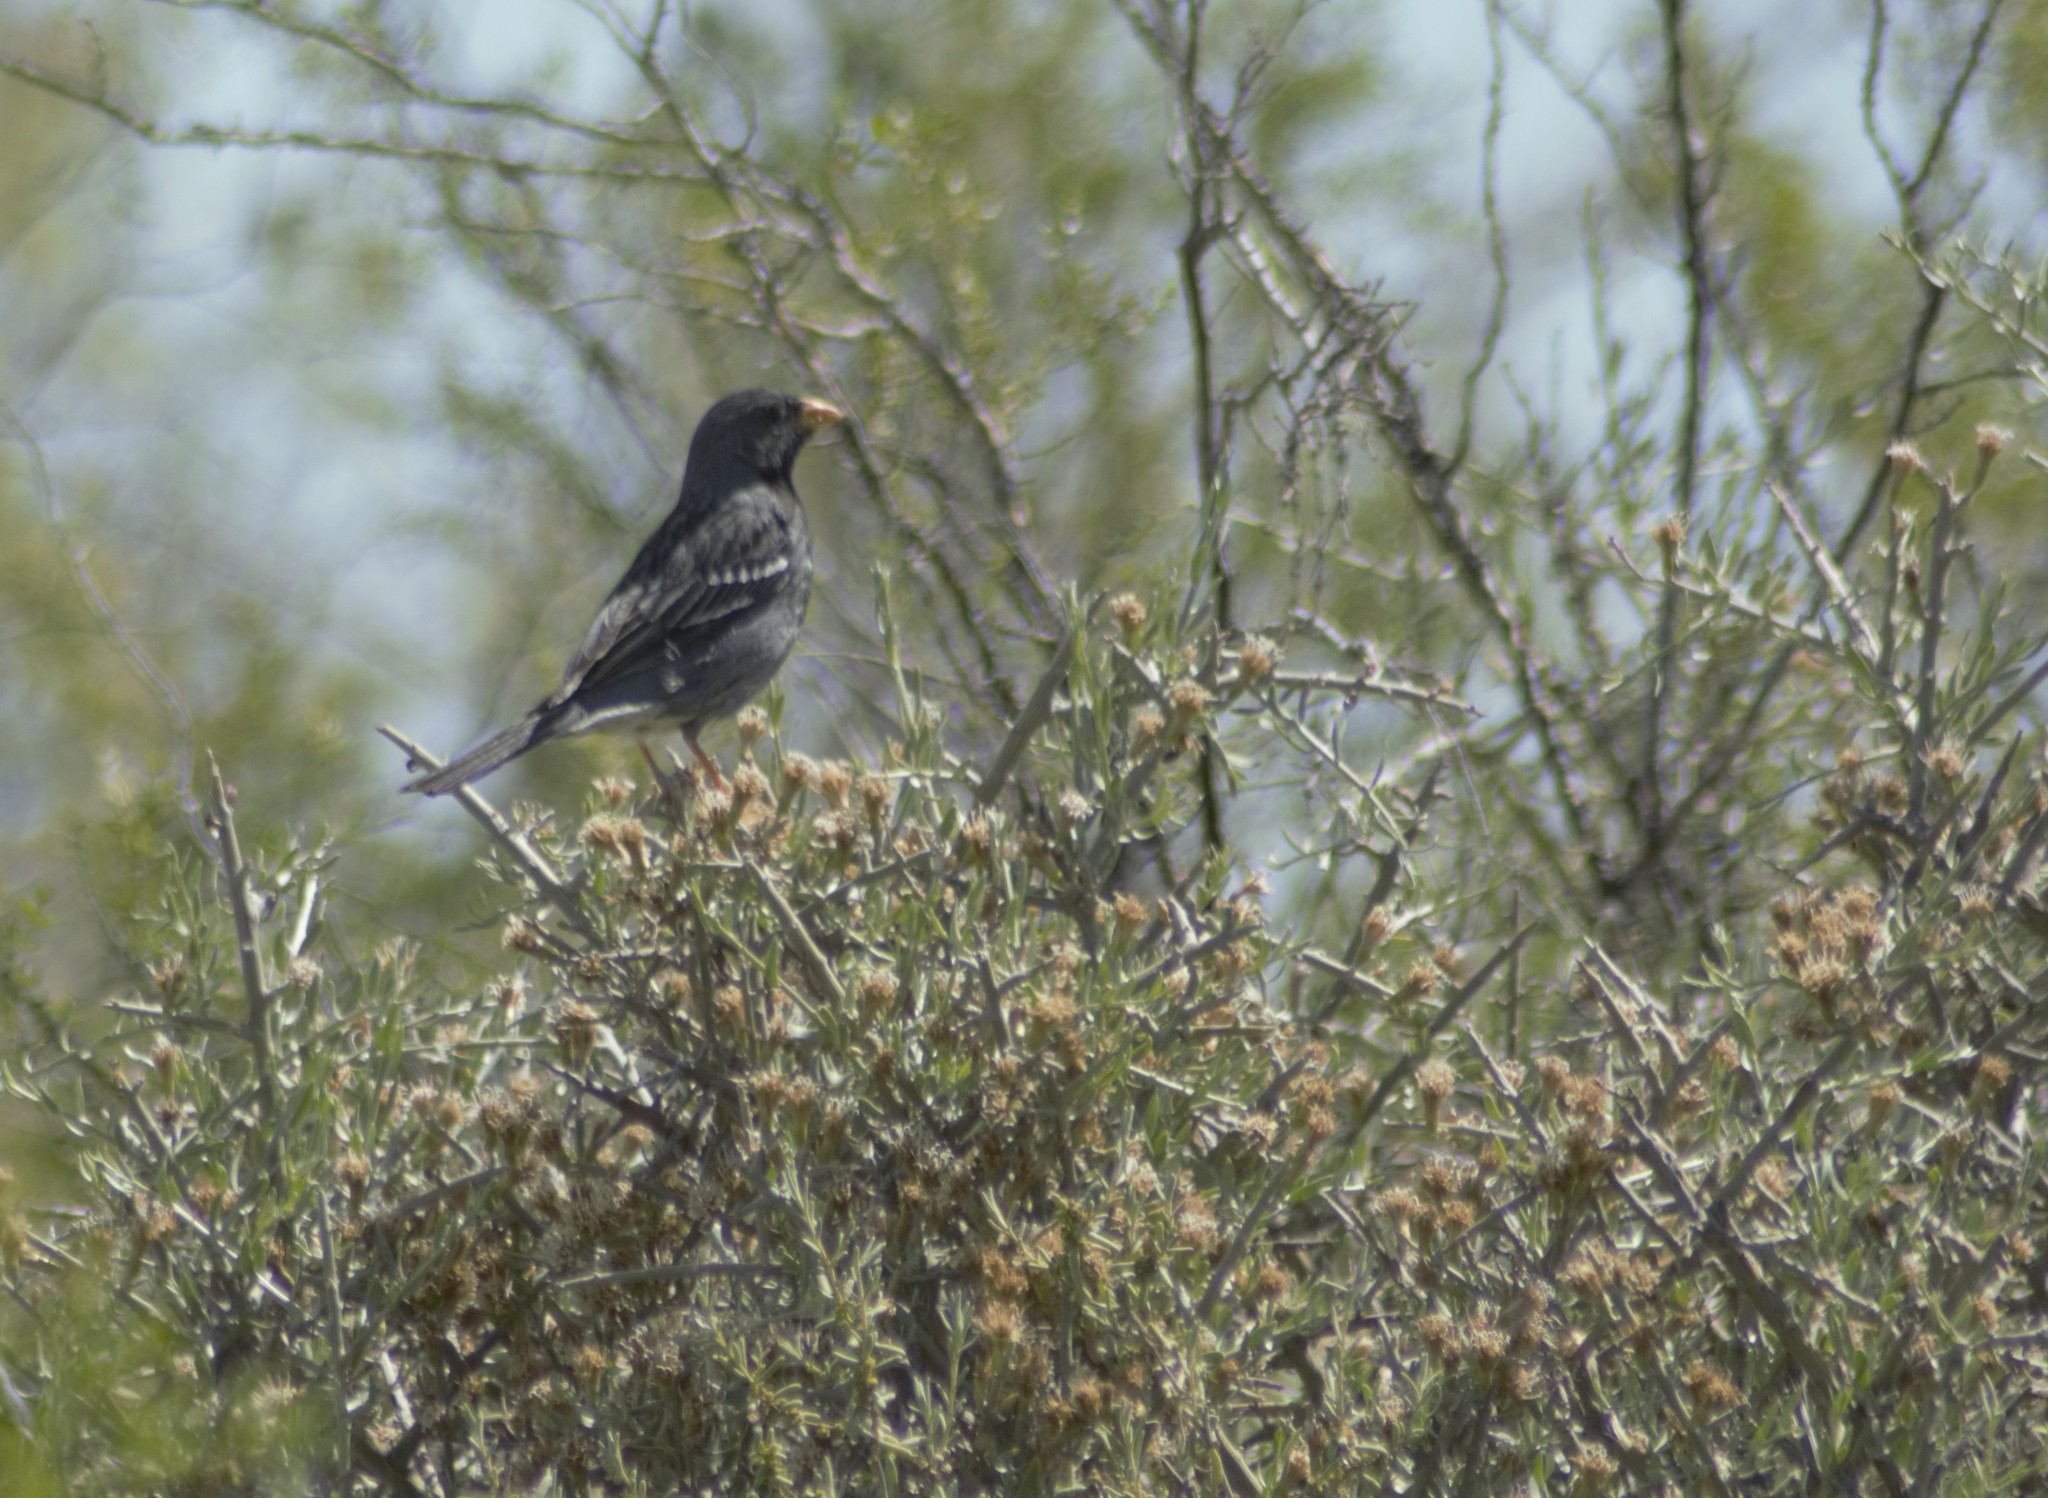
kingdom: Animalia
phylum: Chordata
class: Aves
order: Passeriformes
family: Thraupidae
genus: Rhopospina
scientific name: Rhopospina fruticeti
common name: Mourning sierra finch
